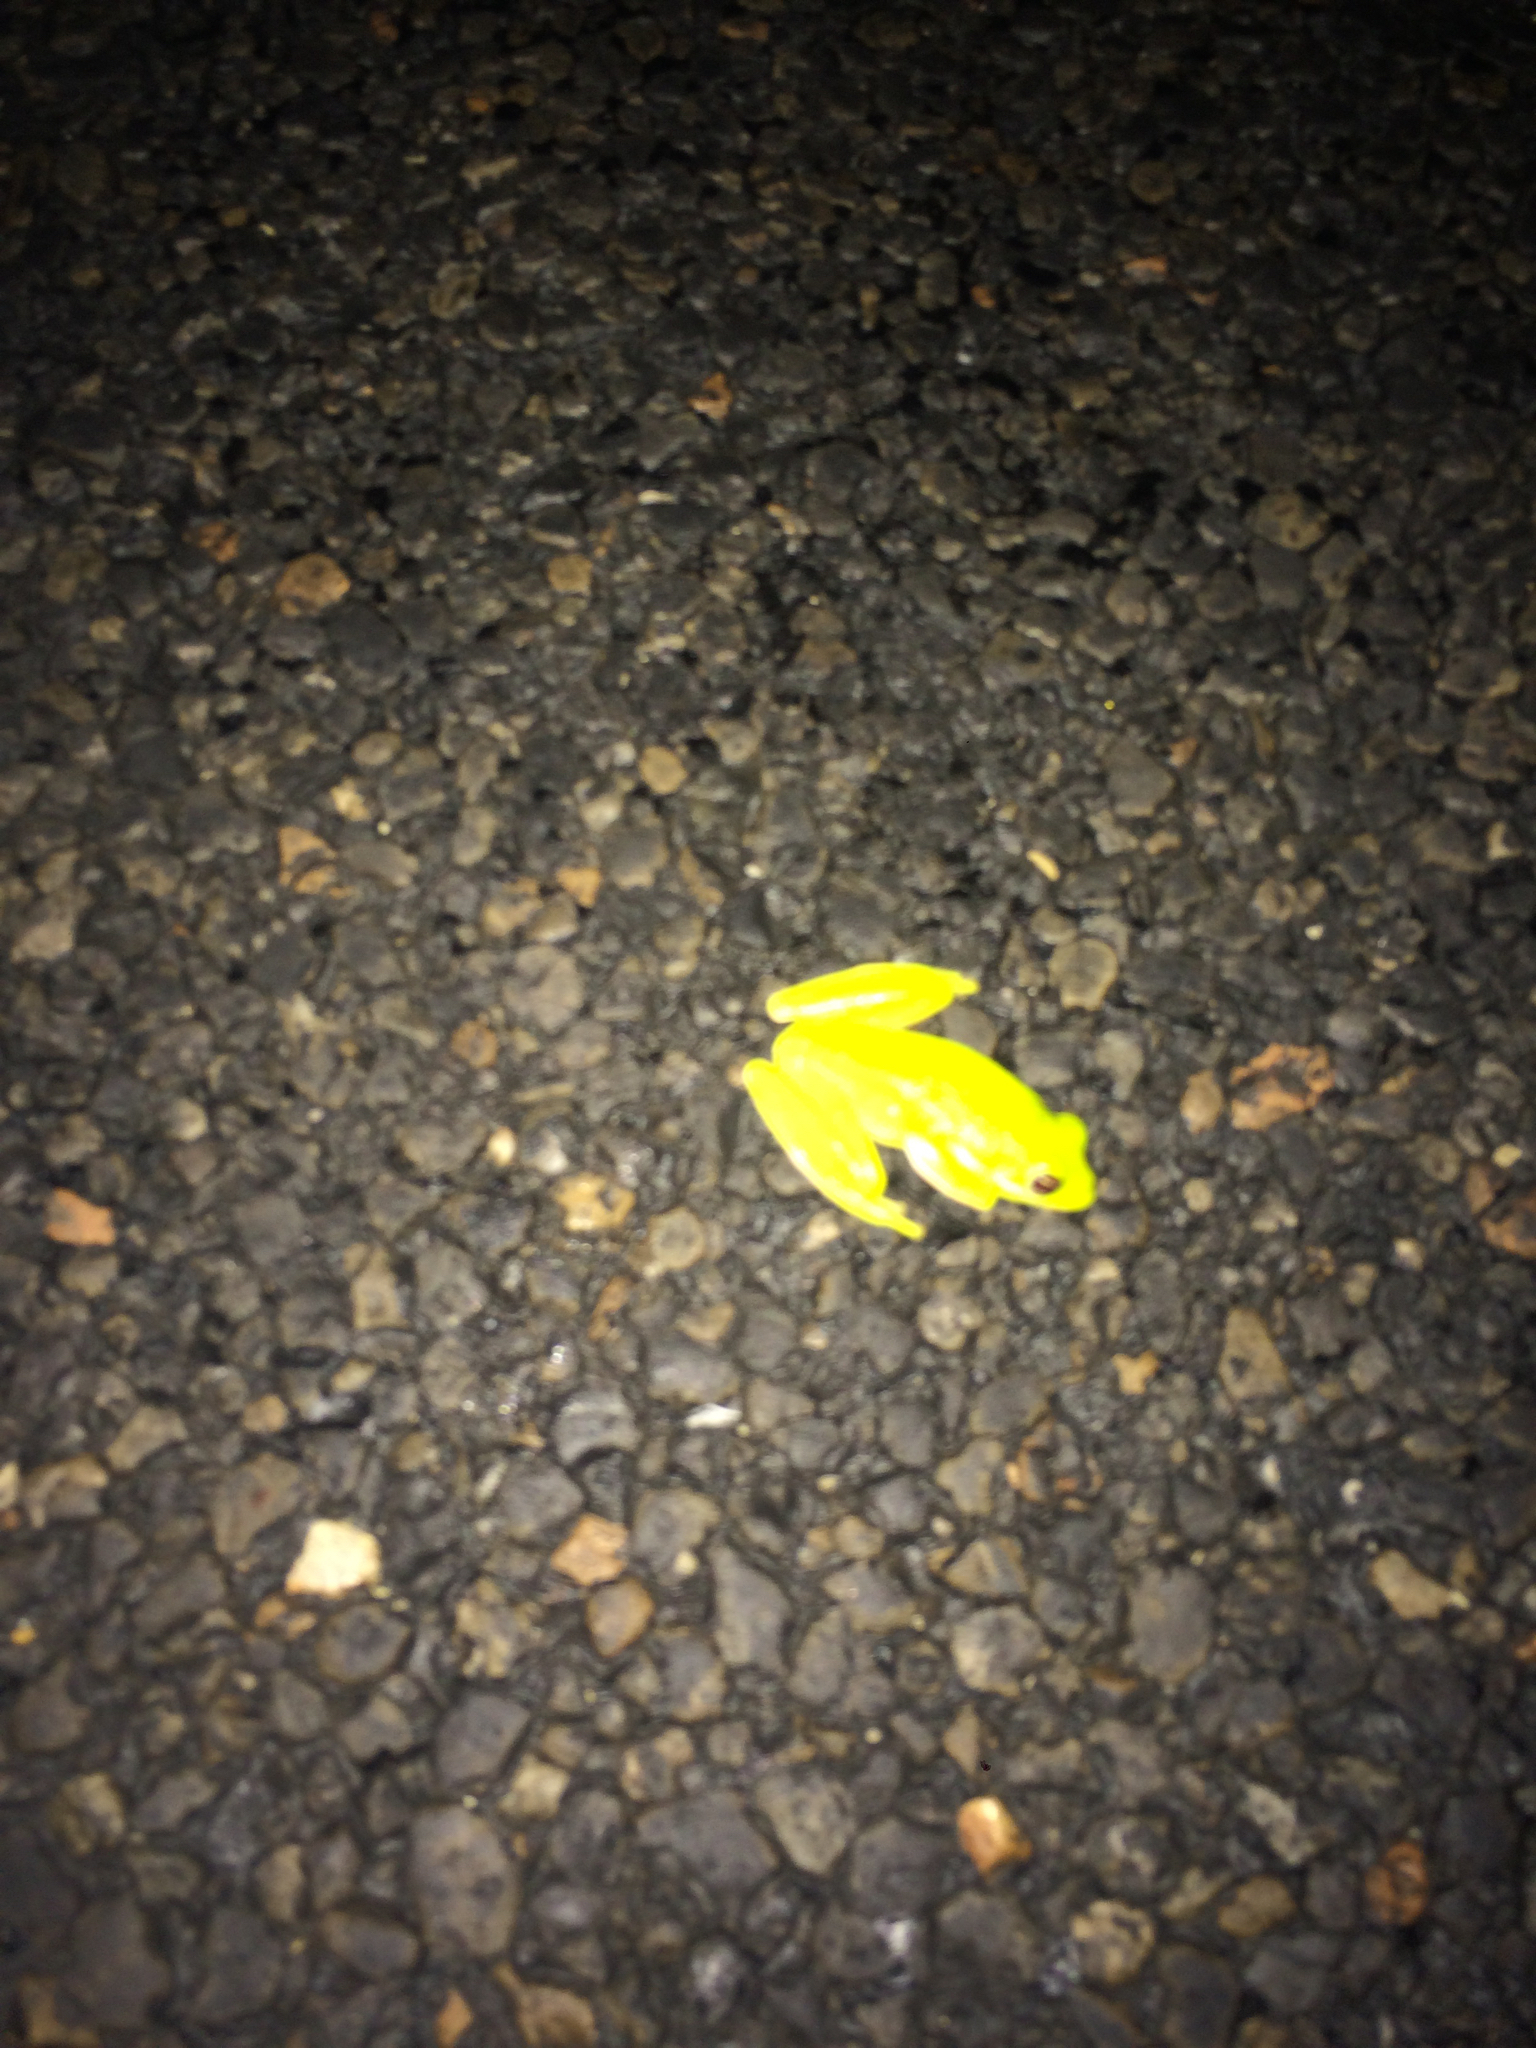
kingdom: Animalia
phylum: Chordata
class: Amphibia
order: Anura
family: Hylidae
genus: Dryophytes
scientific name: Dryophytes cinereus
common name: Green treefrog
